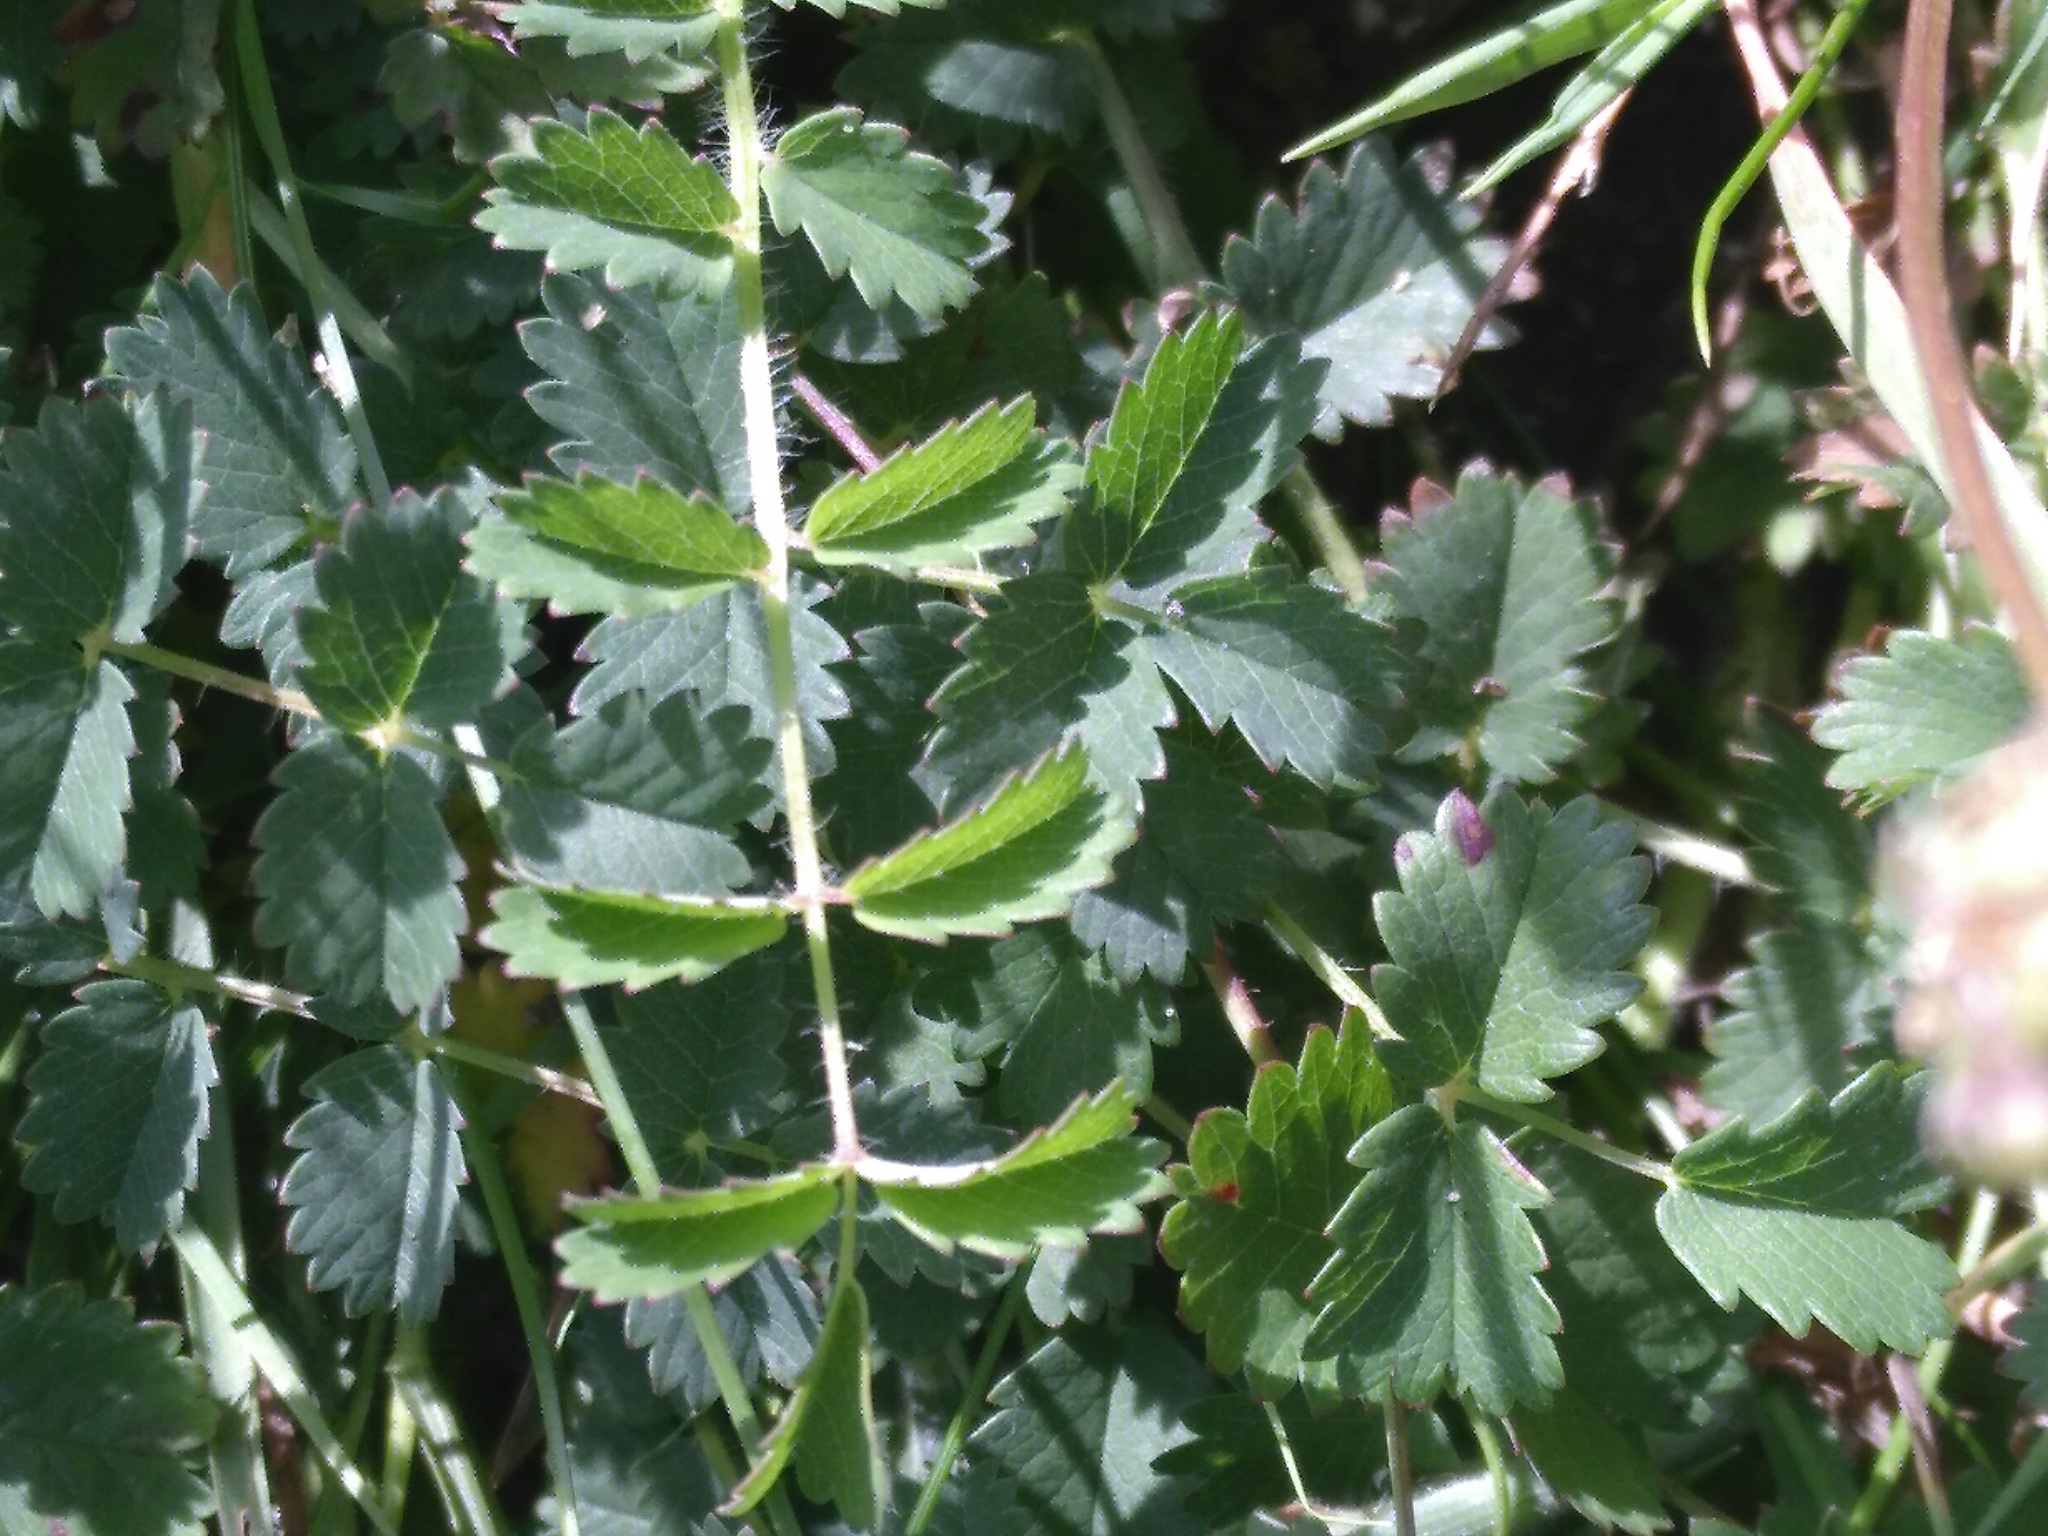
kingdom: Plantae
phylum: Tracheophyta
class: Magnoliopsida
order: Rosales
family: Rosaceae
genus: Poterium
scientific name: Poterium sanguisorba
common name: Salad burnet
